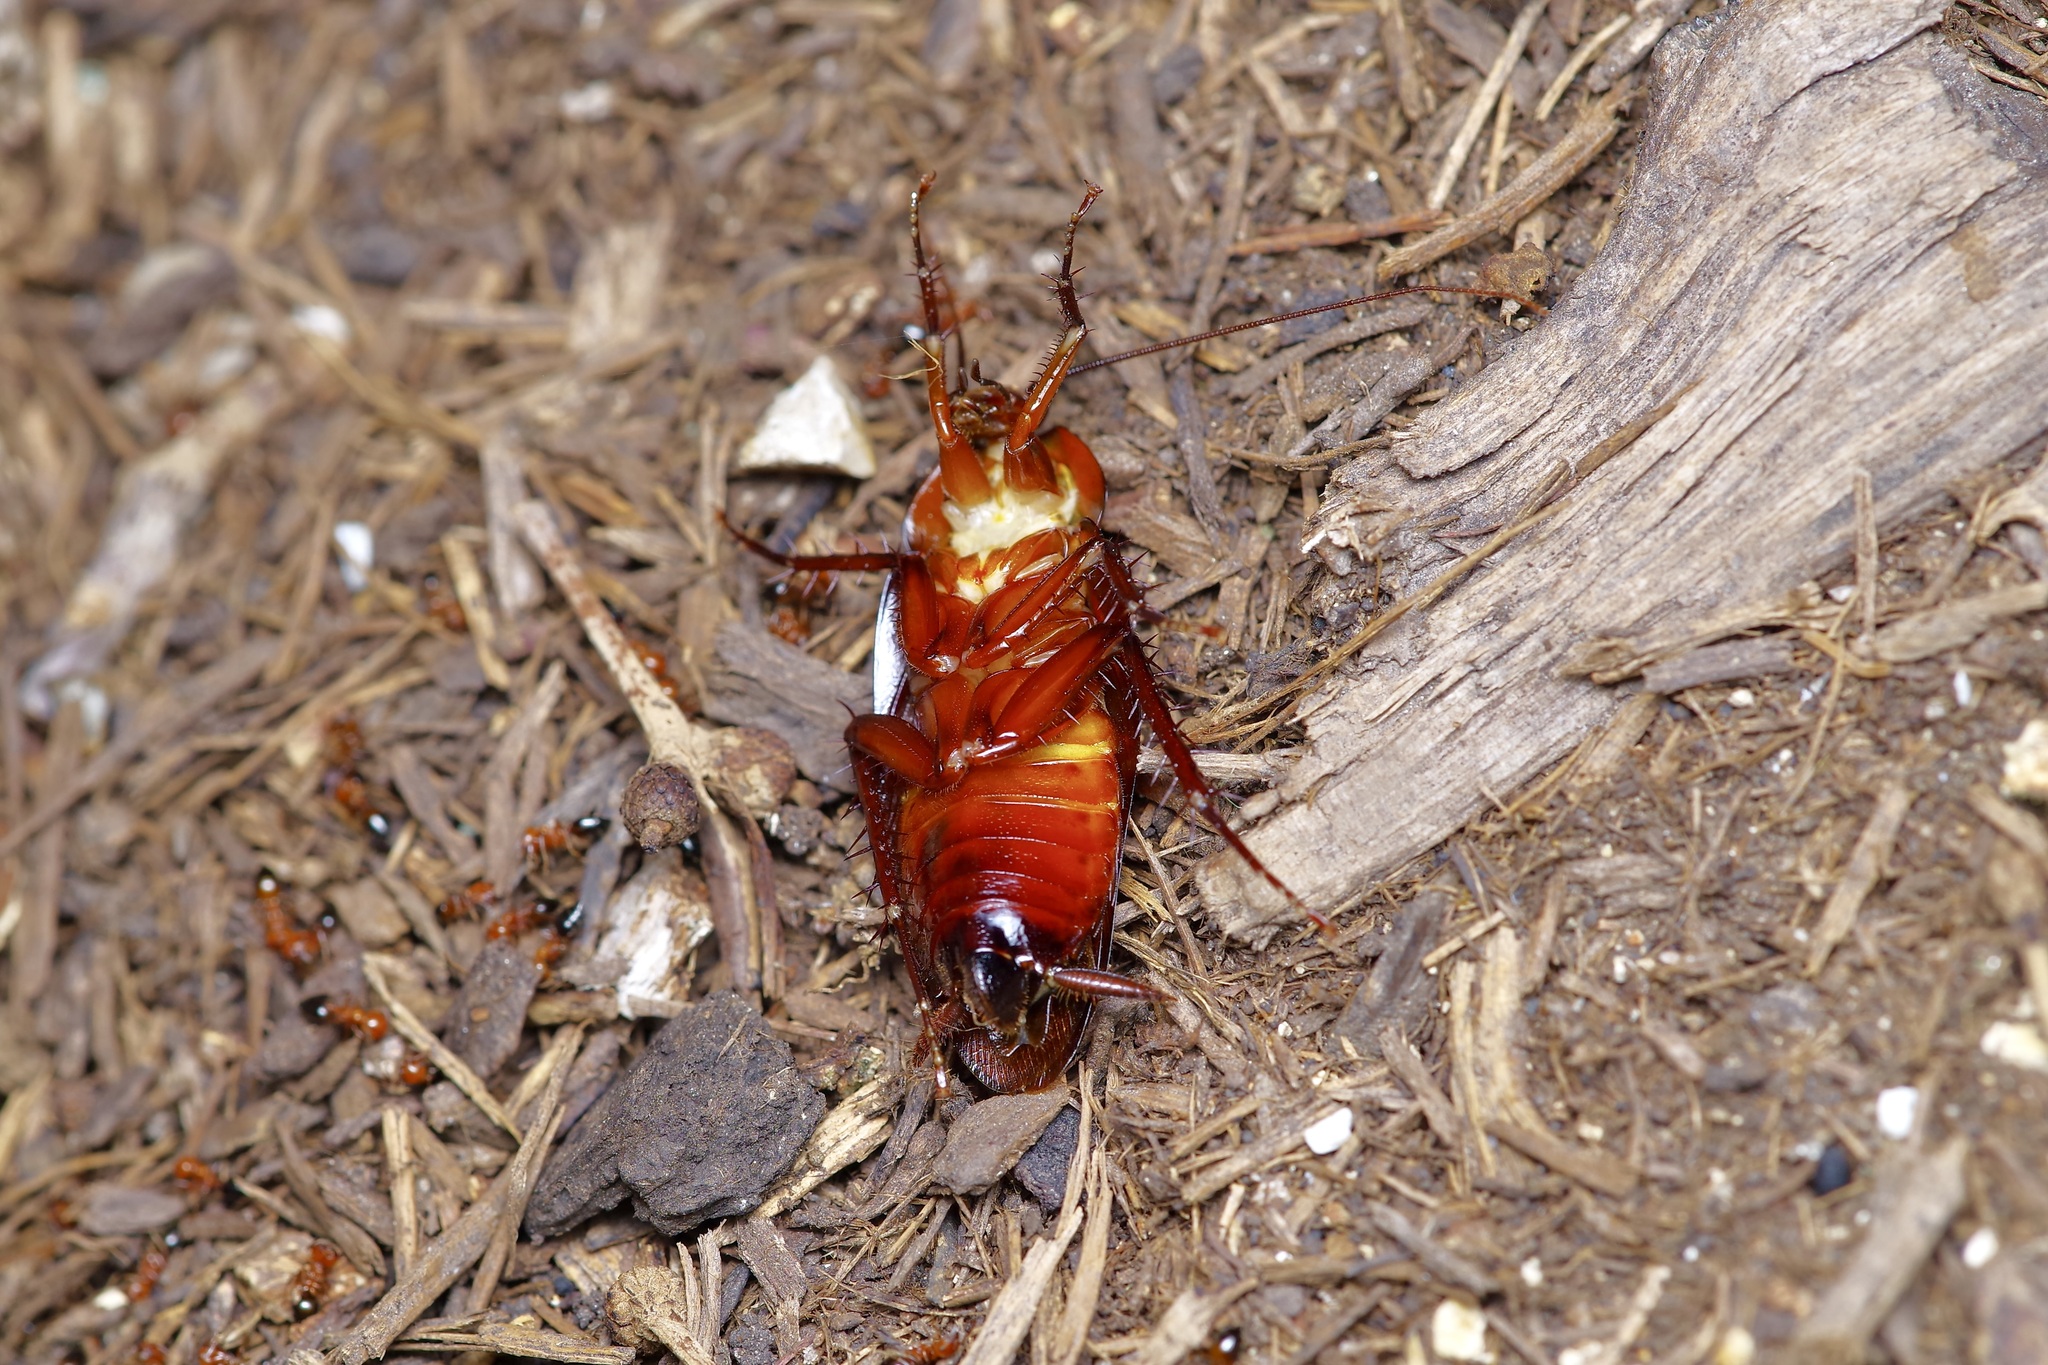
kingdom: Animalia
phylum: Arthropoda
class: Insecta
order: Blattodea
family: Blattidae
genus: Periplaneta
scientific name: Periplaneta fuliginosa
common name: Smokeybrown cockroad
